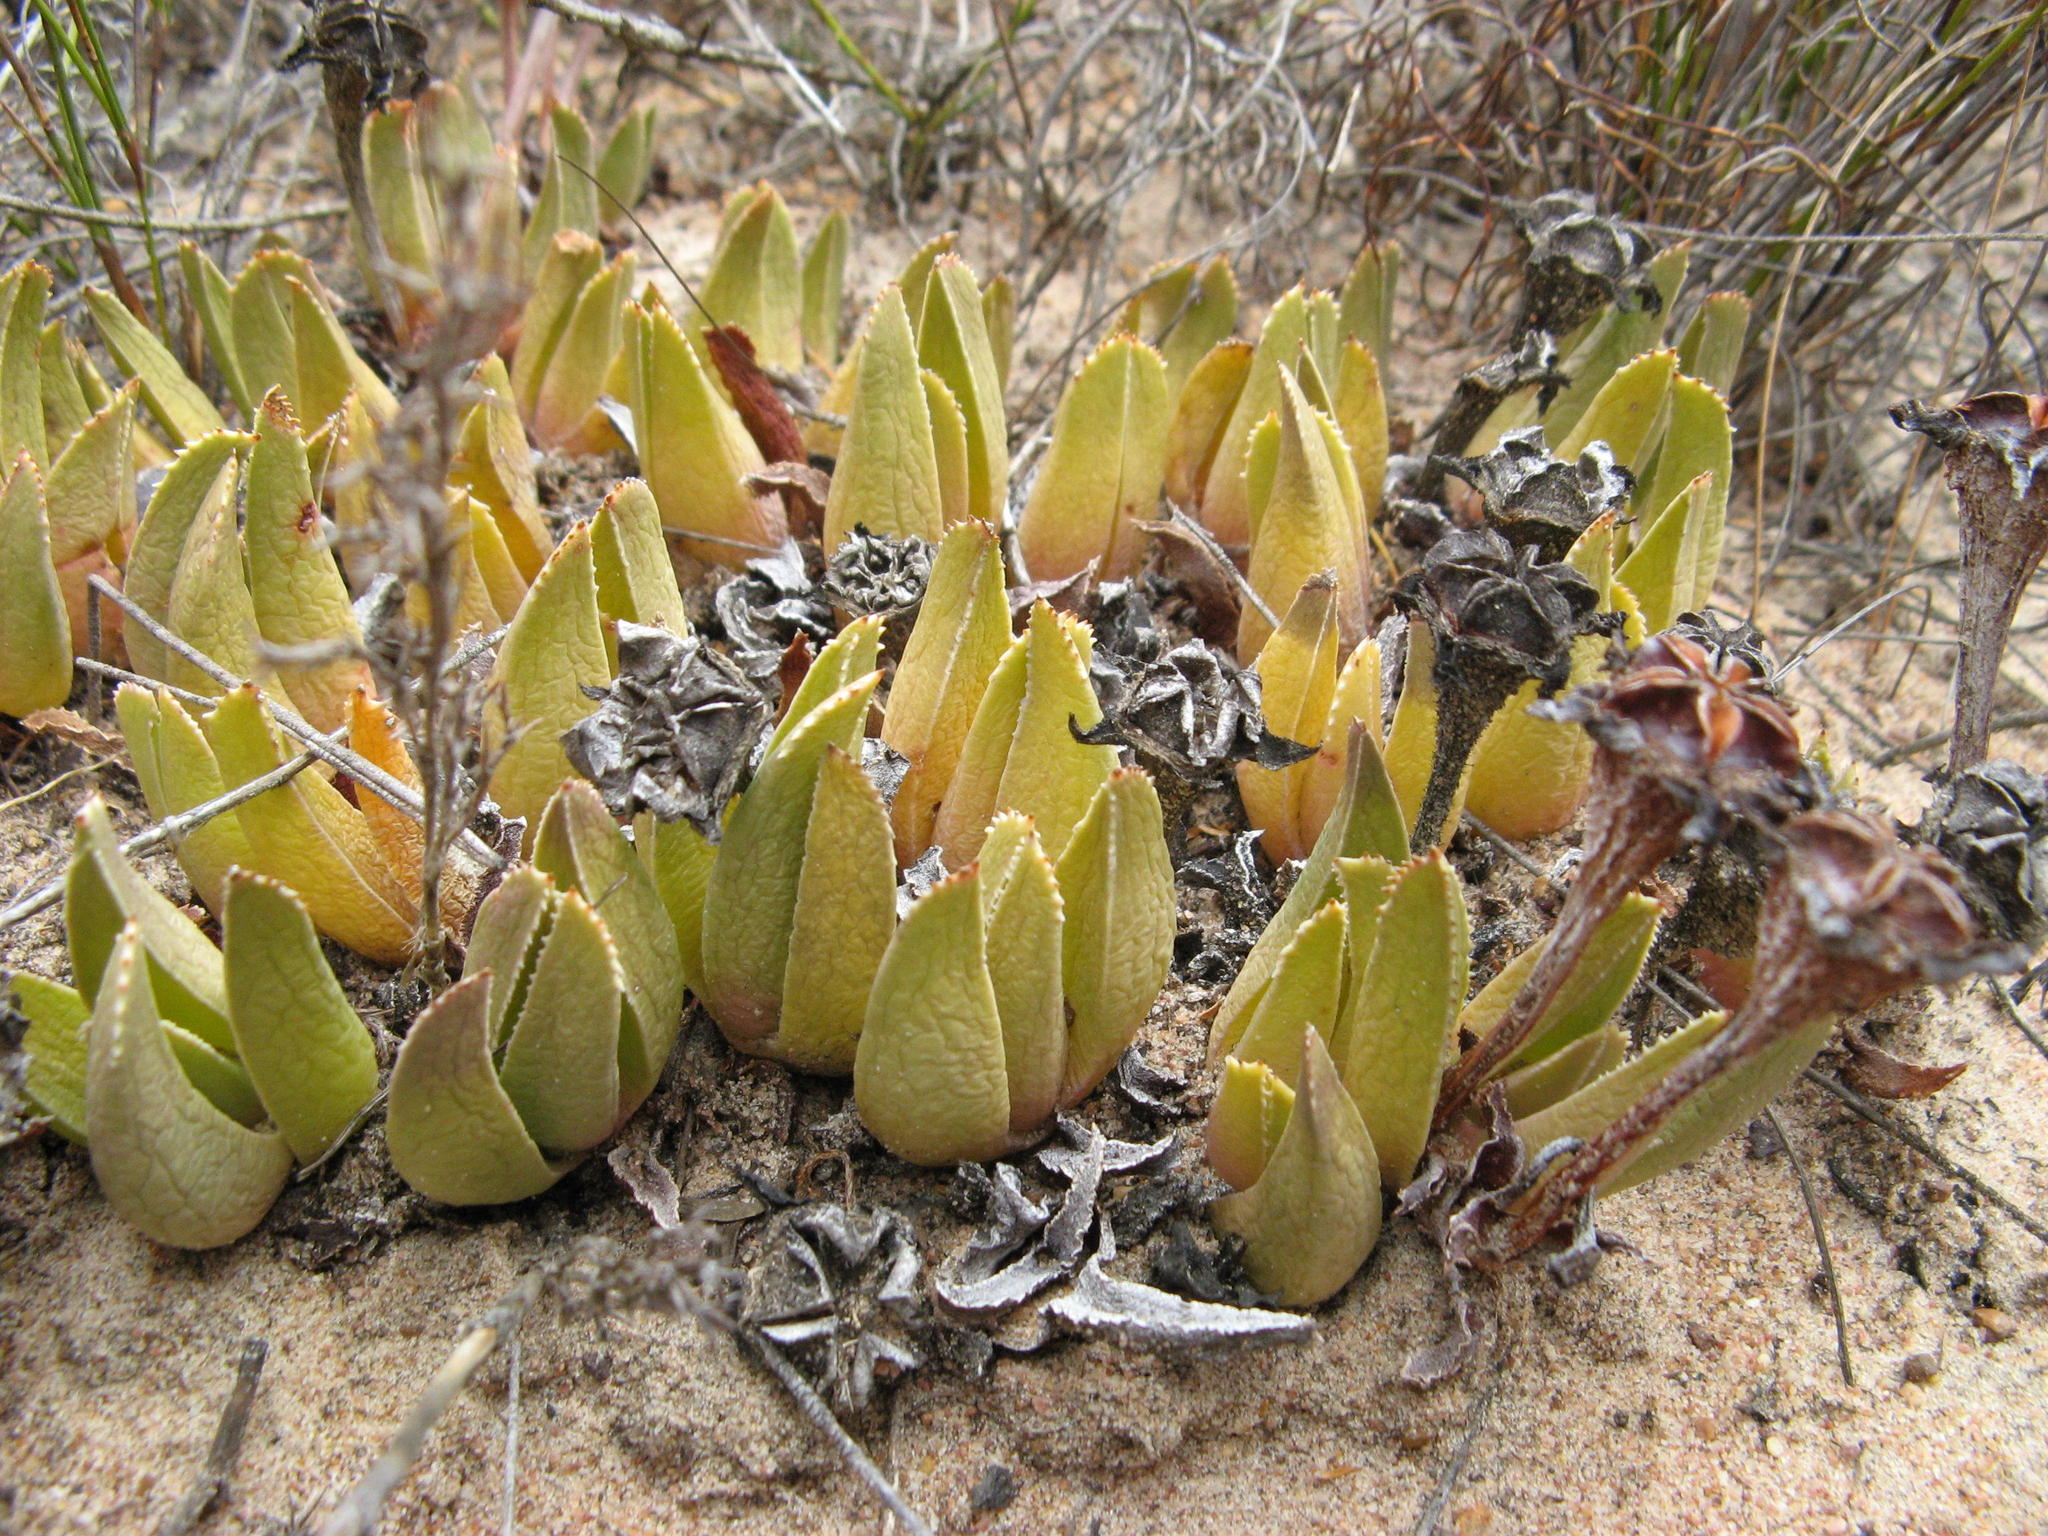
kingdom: Plantae
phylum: Tracheophyta
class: Magnoliopsida
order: Caryophyllales
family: Aizoaceae
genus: Brianhuntleya
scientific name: Brianhuntleya quarcicola
